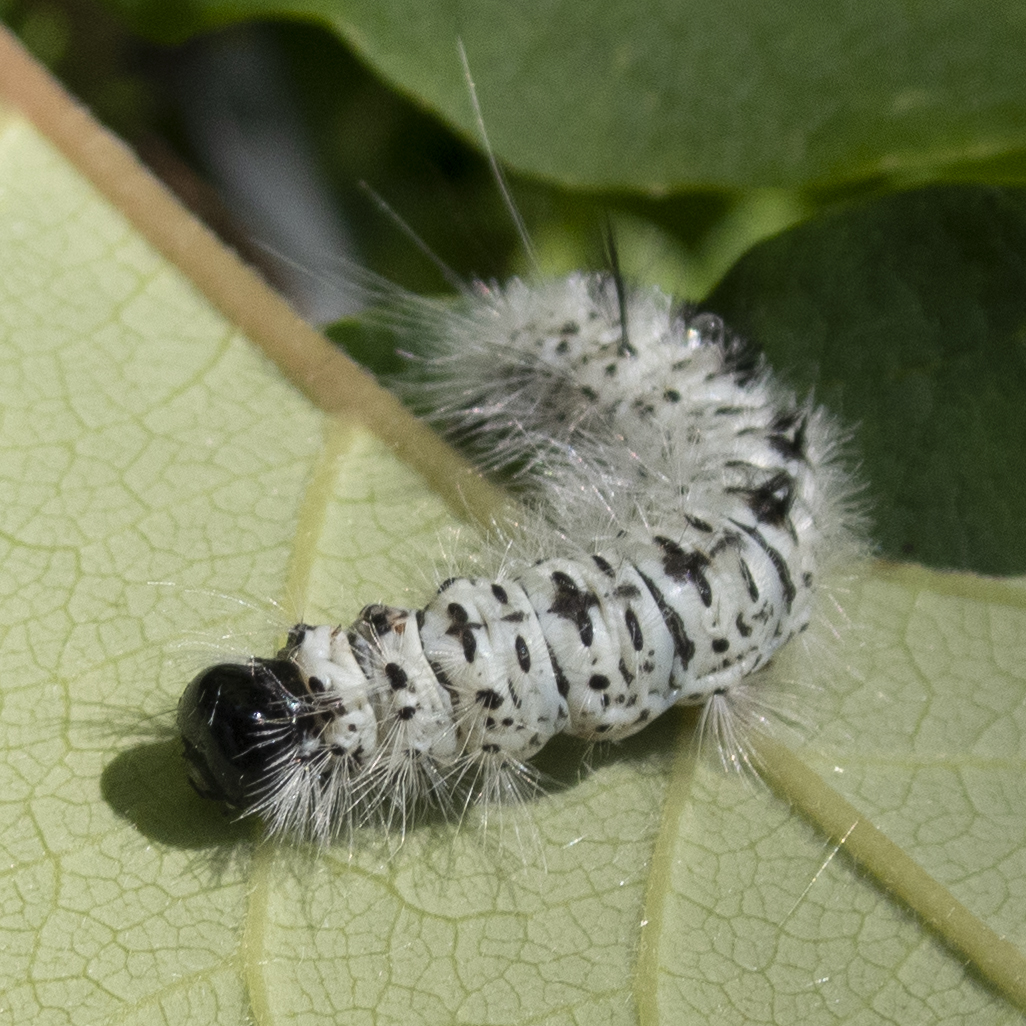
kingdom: Animalia
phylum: Arthropoda
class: Insecta
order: Lepidoptera
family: Erebidae
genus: Lophocampa
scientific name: Lophocampa caryae
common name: Hickory tussock moth
